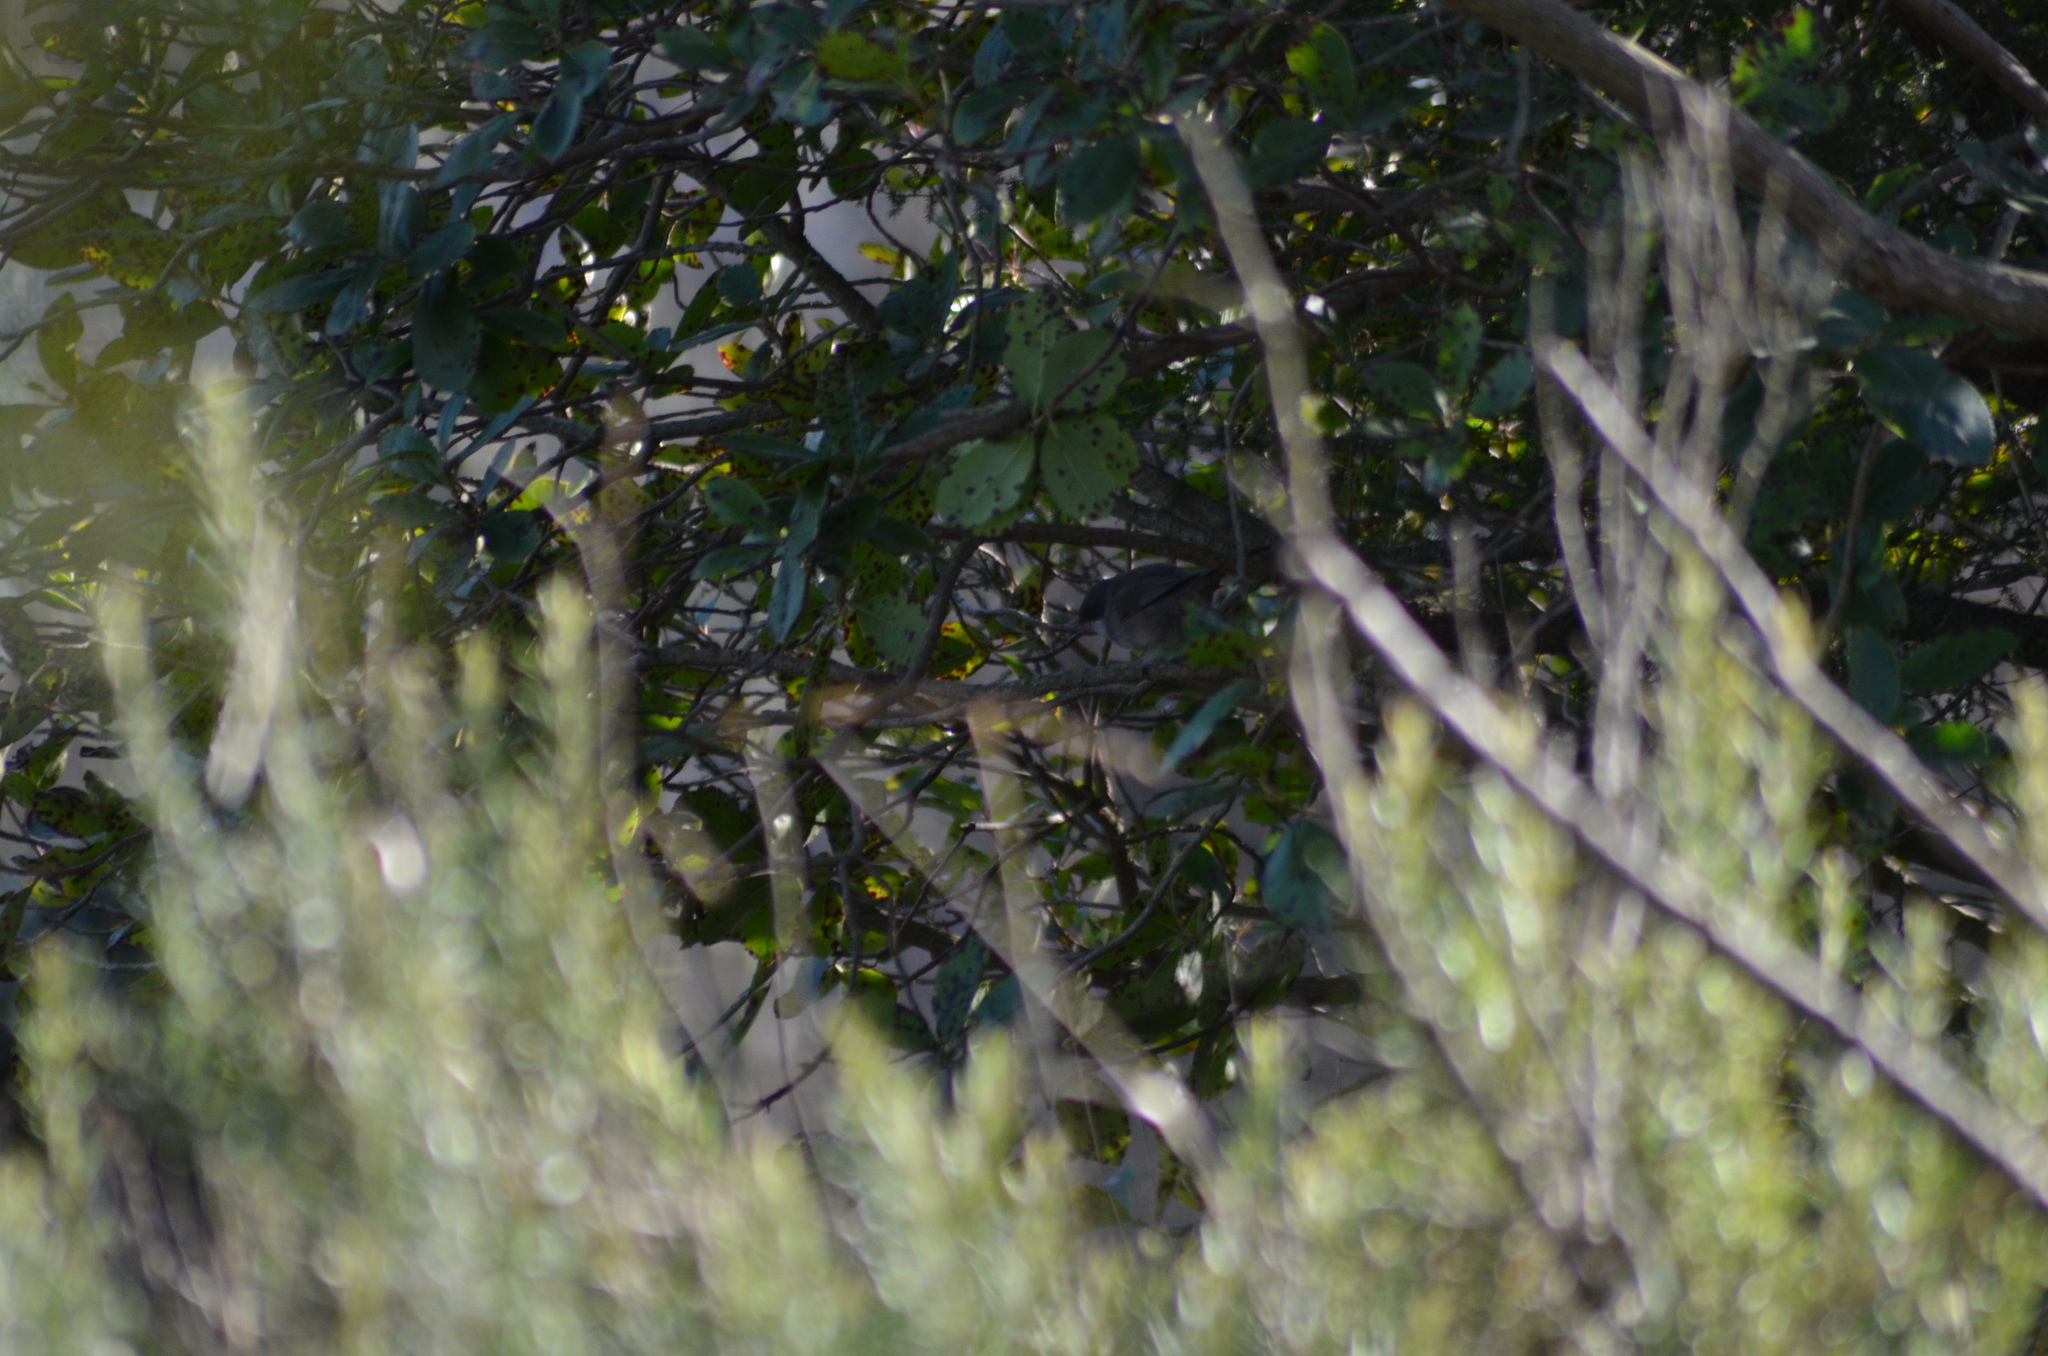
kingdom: Animalia
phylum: Chordata
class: Aves
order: Passeriformes
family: Sylviidae
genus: Curruca
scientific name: Curruca melanocephala
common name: Sardinian warbler
